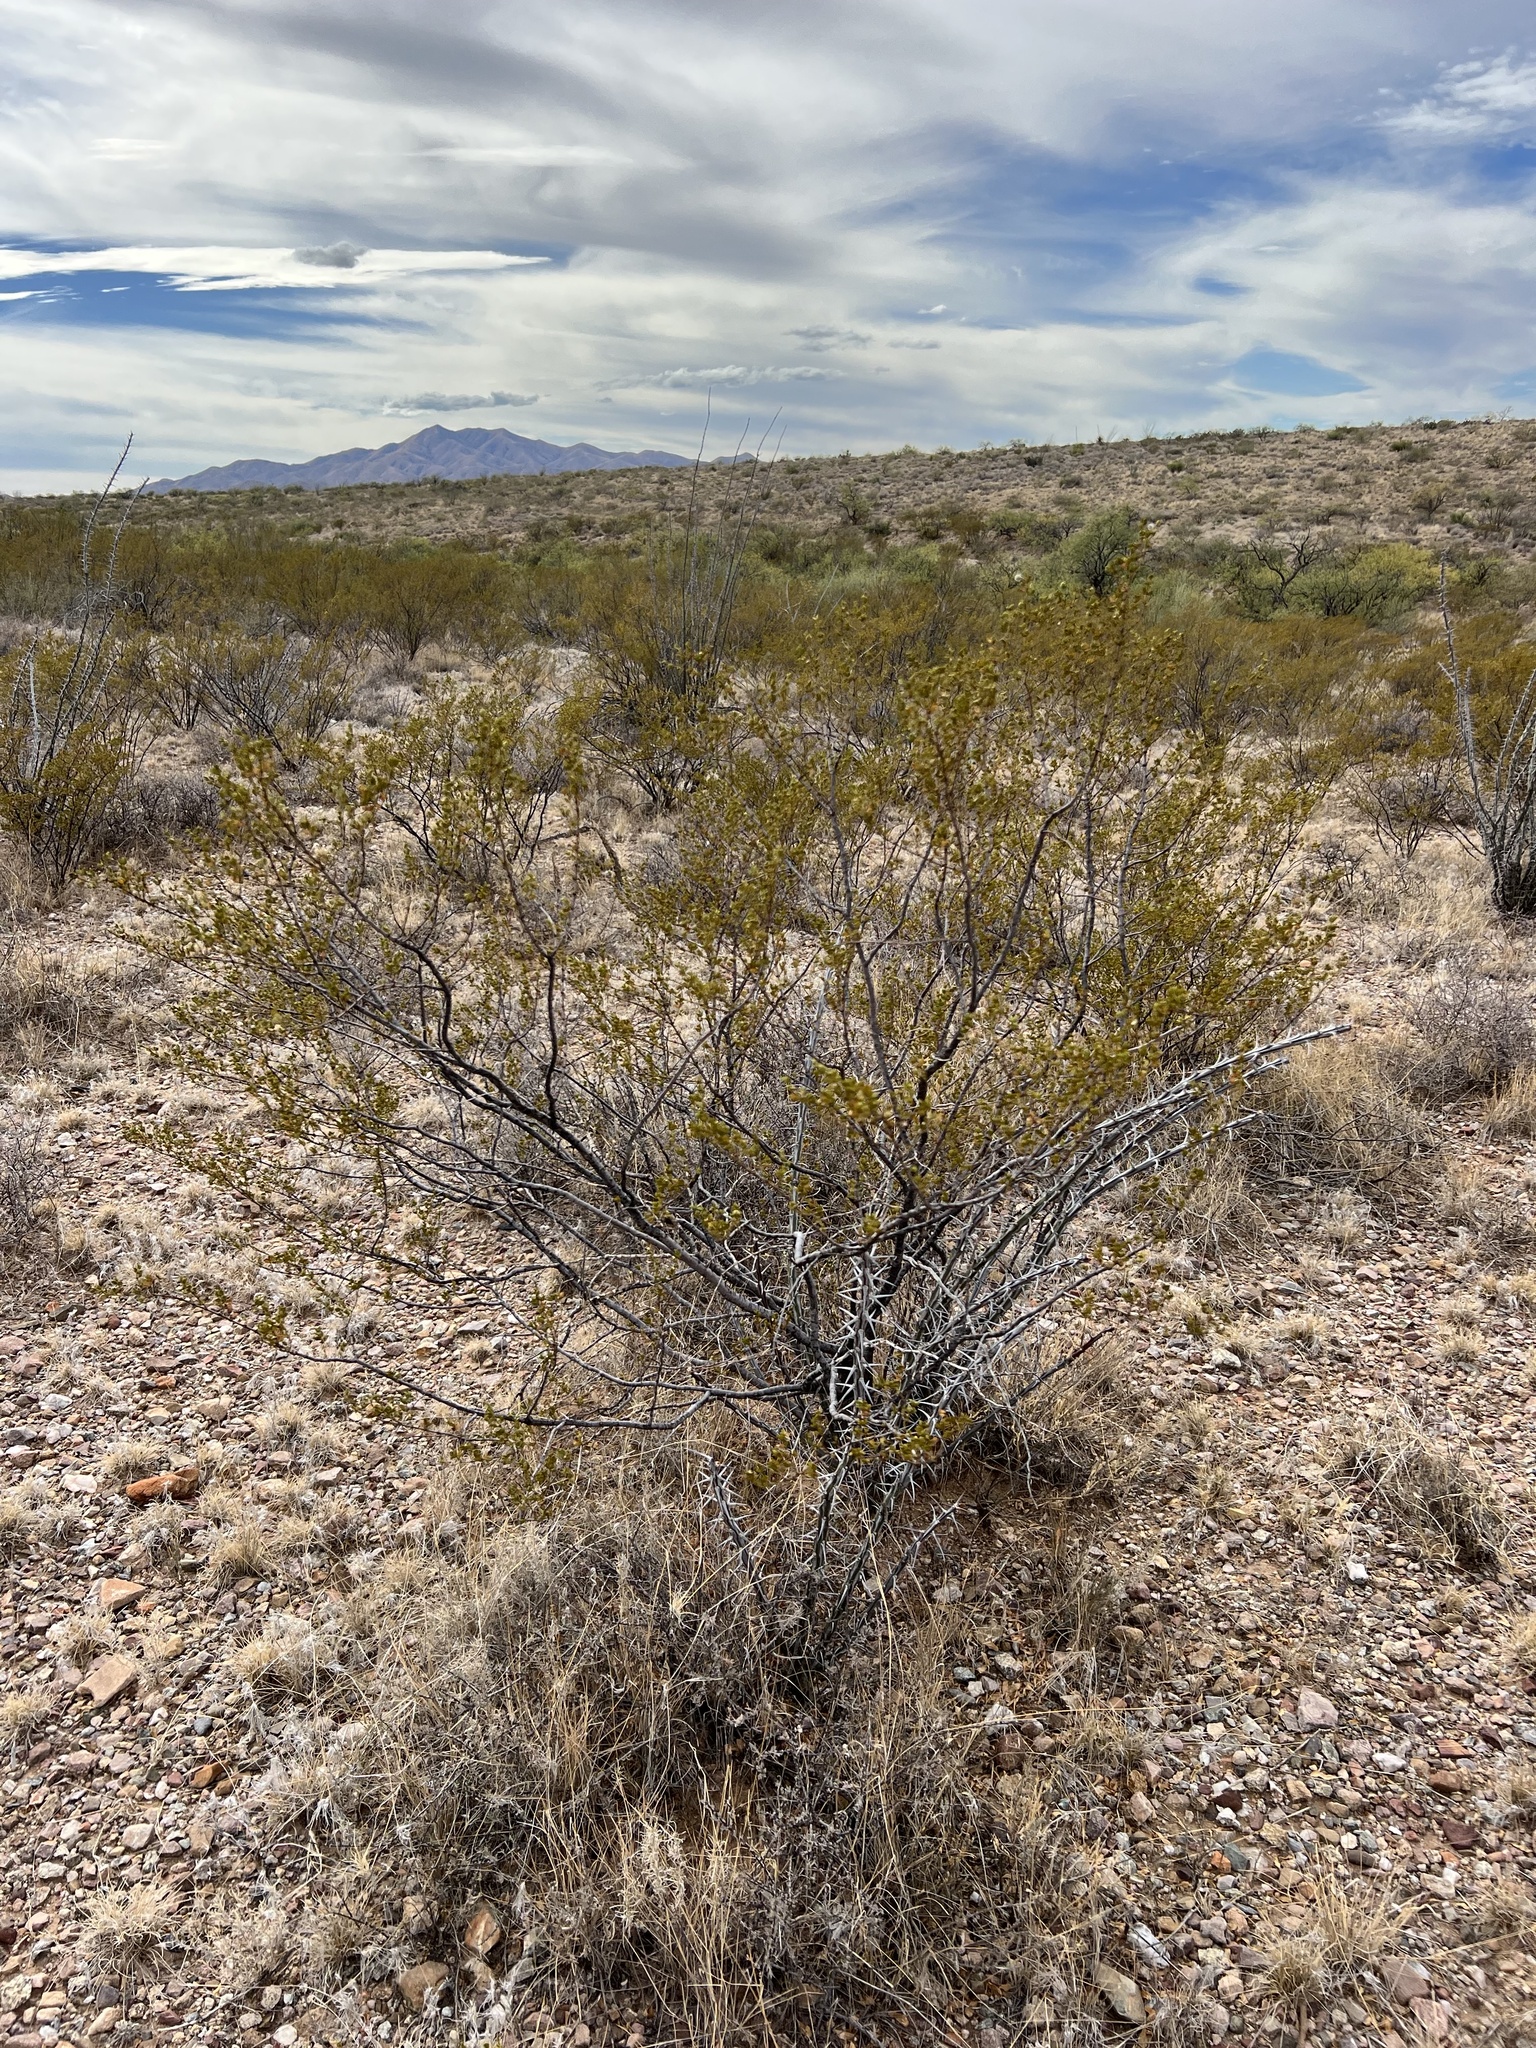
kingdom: Plantae
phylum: Tracheophyta
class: Magnoliopsida
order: Zygophyllales
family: Zygophyllaceae
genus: Larrea
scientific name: Larrea tridentata
